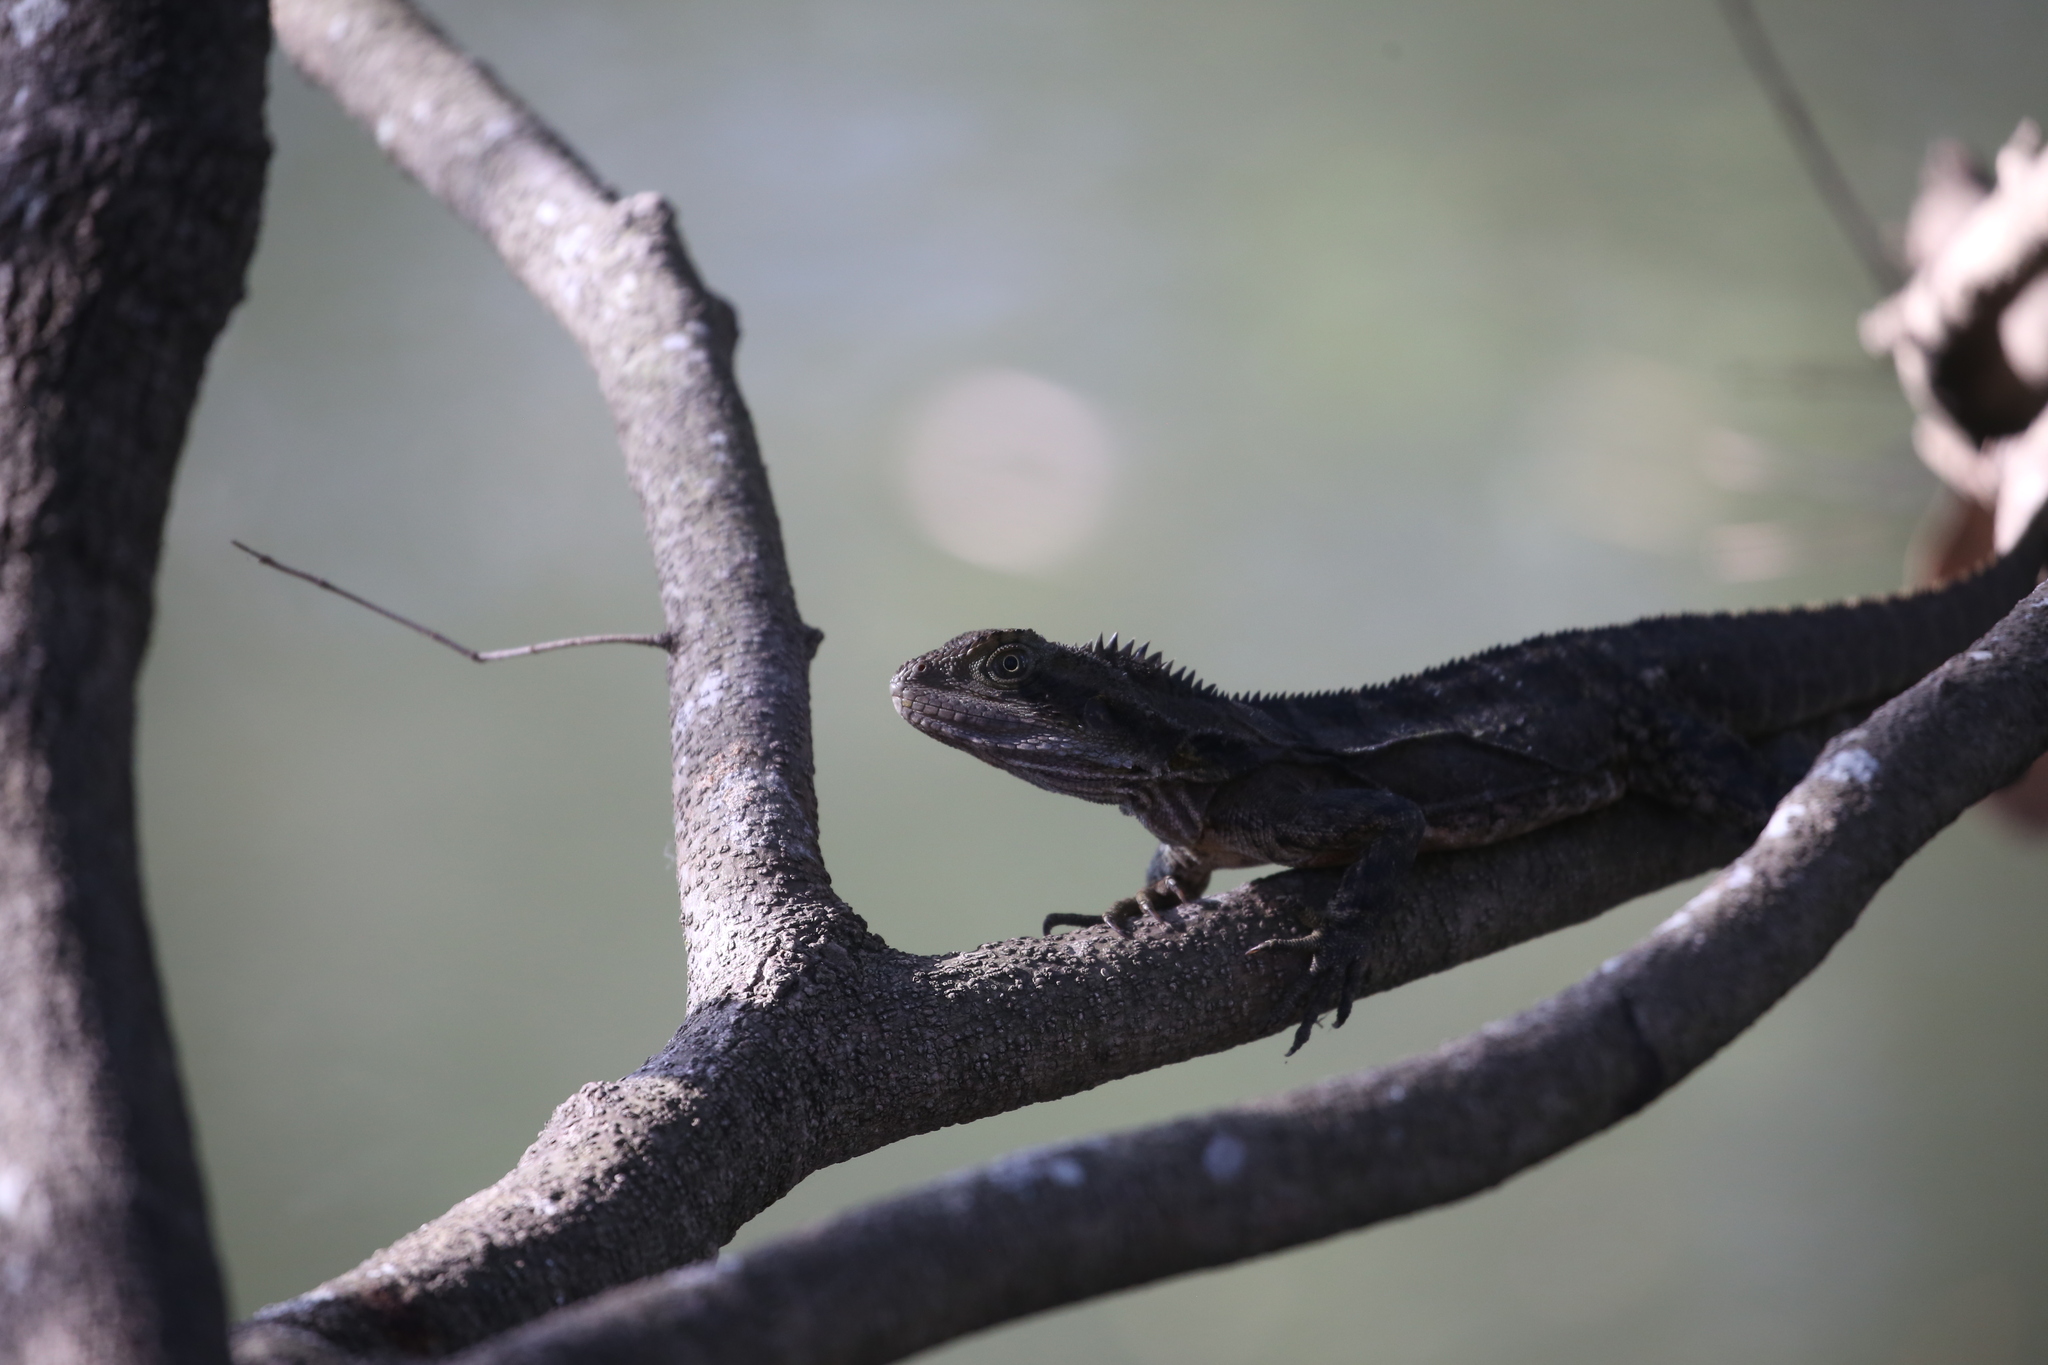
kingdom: Animalia
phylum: Chordata
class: Squamata
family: Agamidae
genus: Intellagama
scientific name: Intellagama lesueurii
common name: Eastern water dragon
